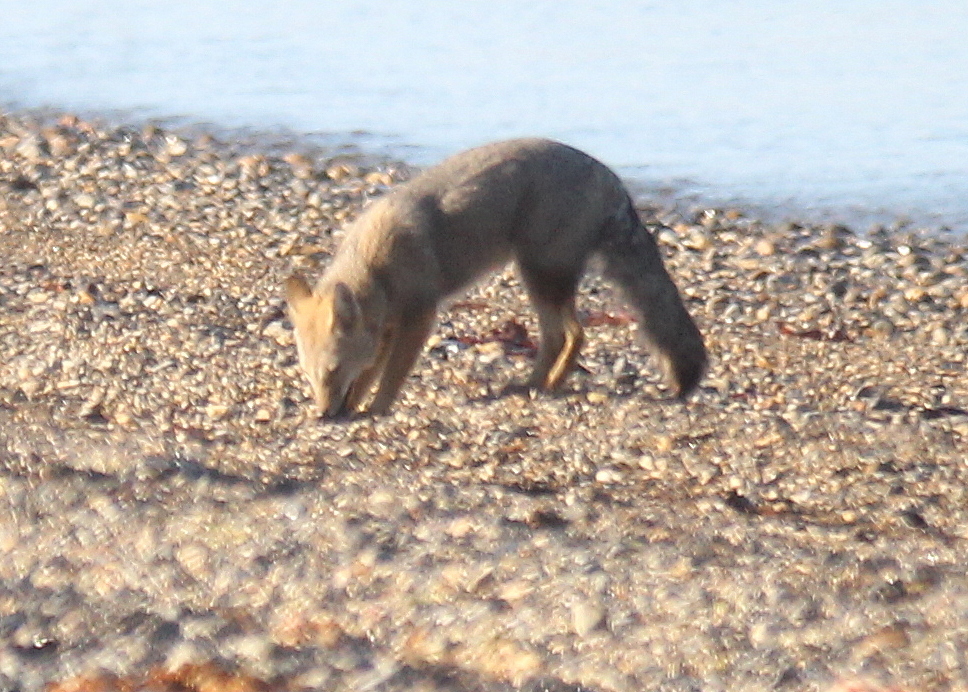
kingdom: Animalia
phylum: Chordata
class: Mammalia
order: Carnivora
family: Canidae
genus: Lycalopex
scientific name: Lycalopex gymnocercus
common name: Pampas fox
